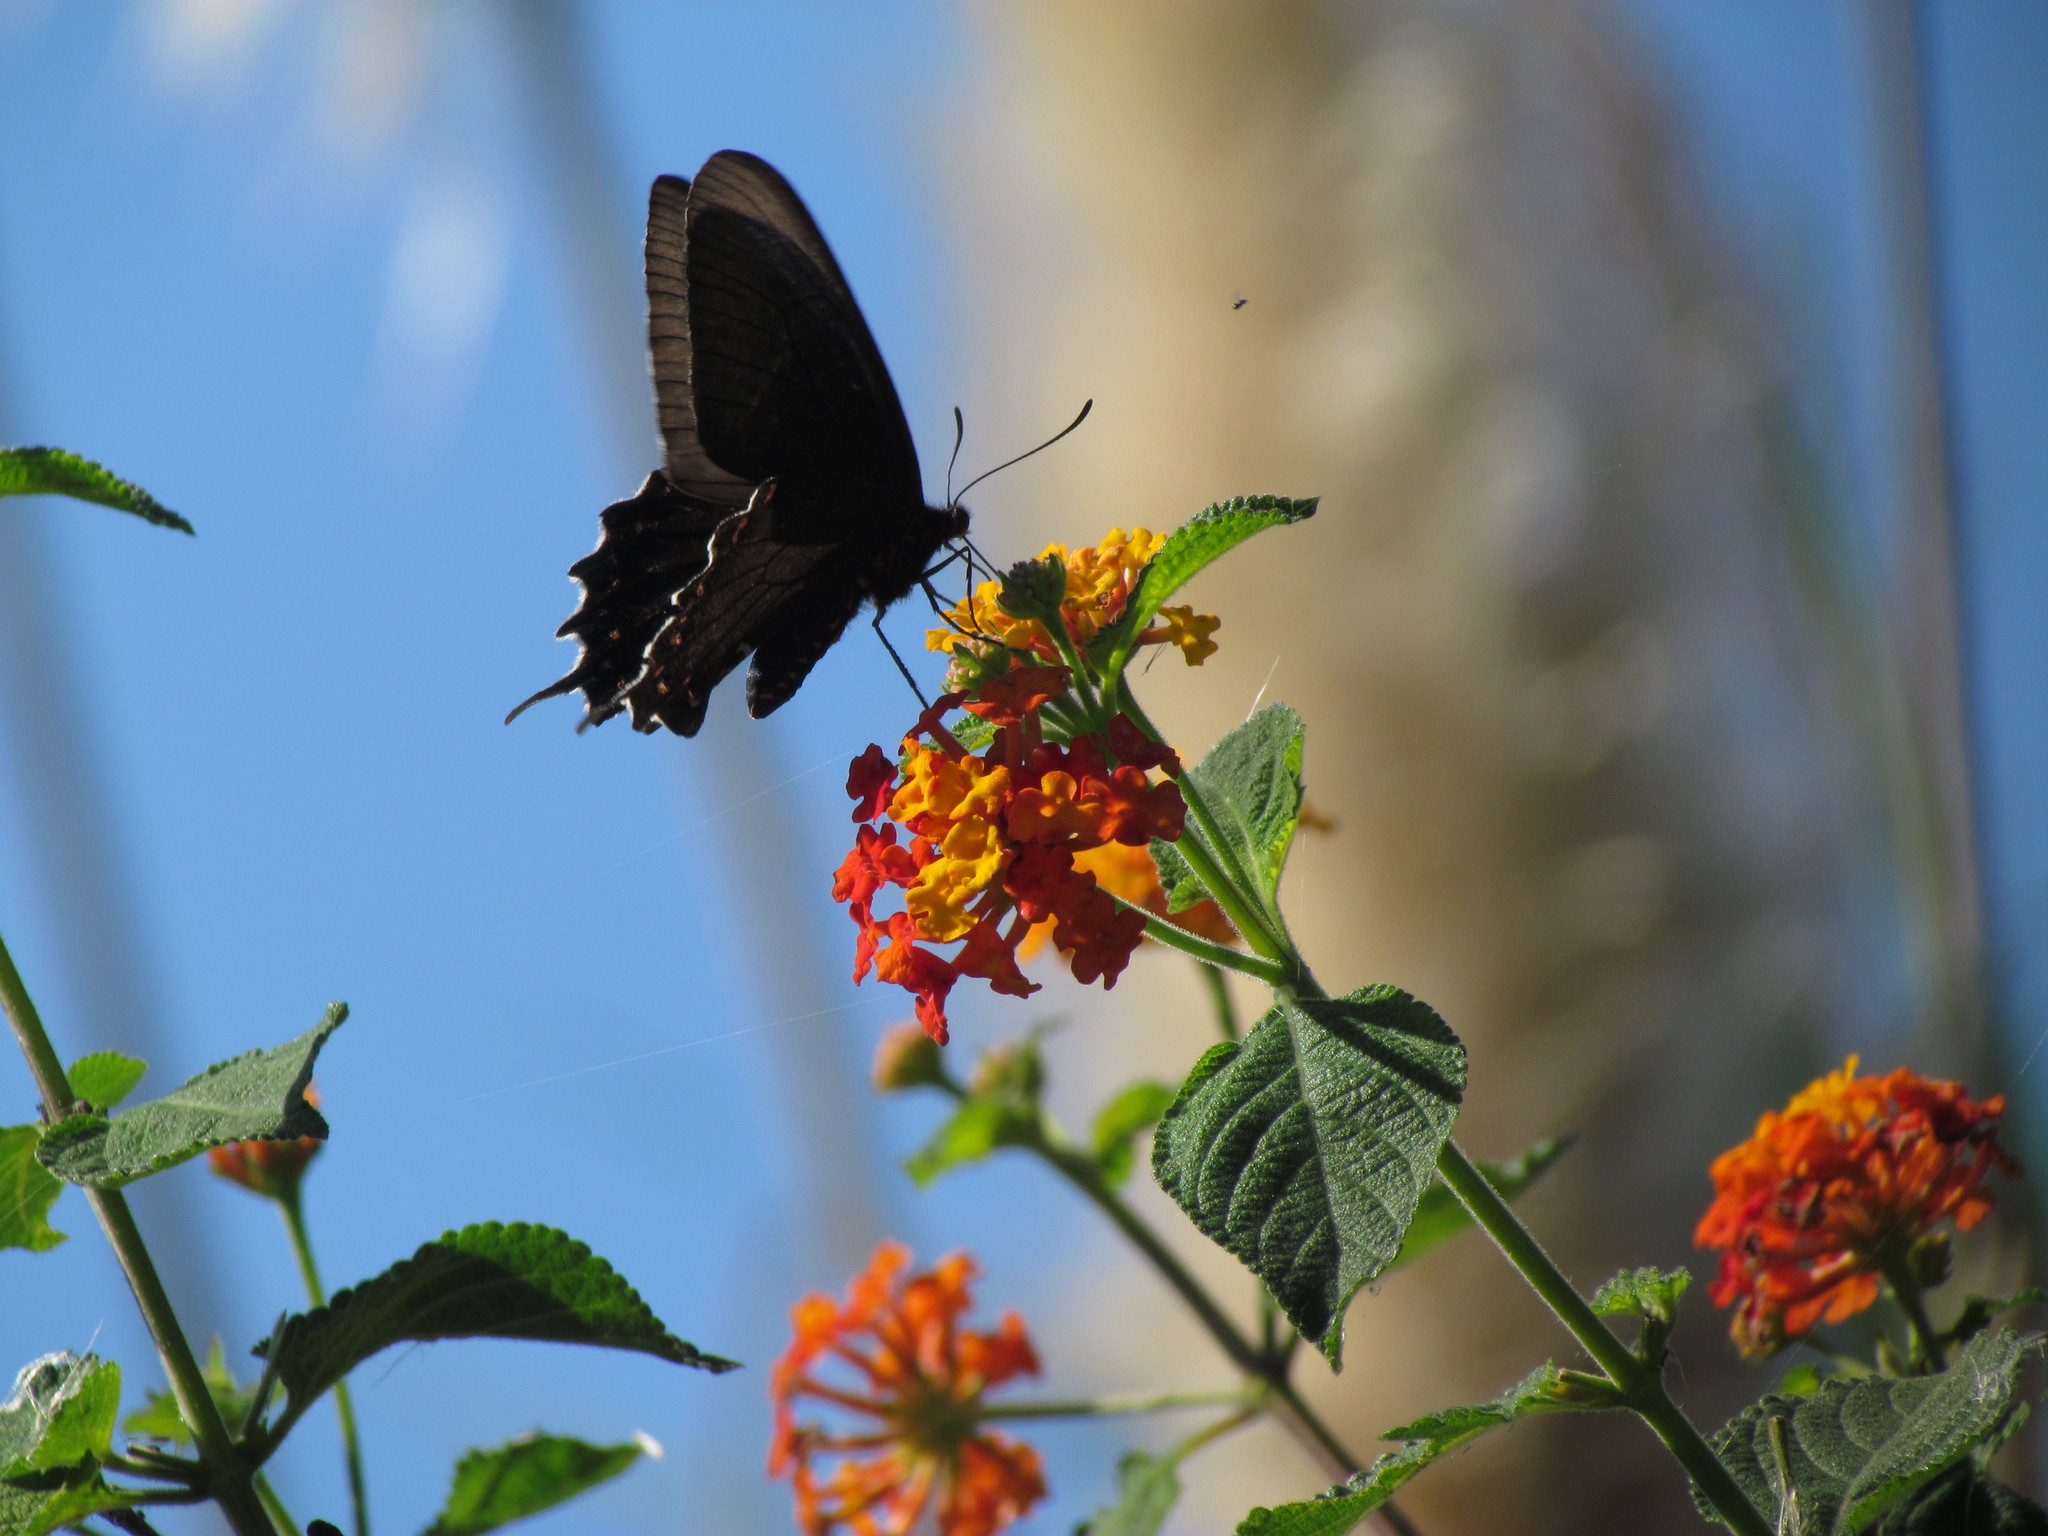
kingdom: Animalia
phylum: Arthropoda
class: Insecta
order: Lepidoptera
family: Papilionidae
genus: Parides
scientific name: Parides bunichus
